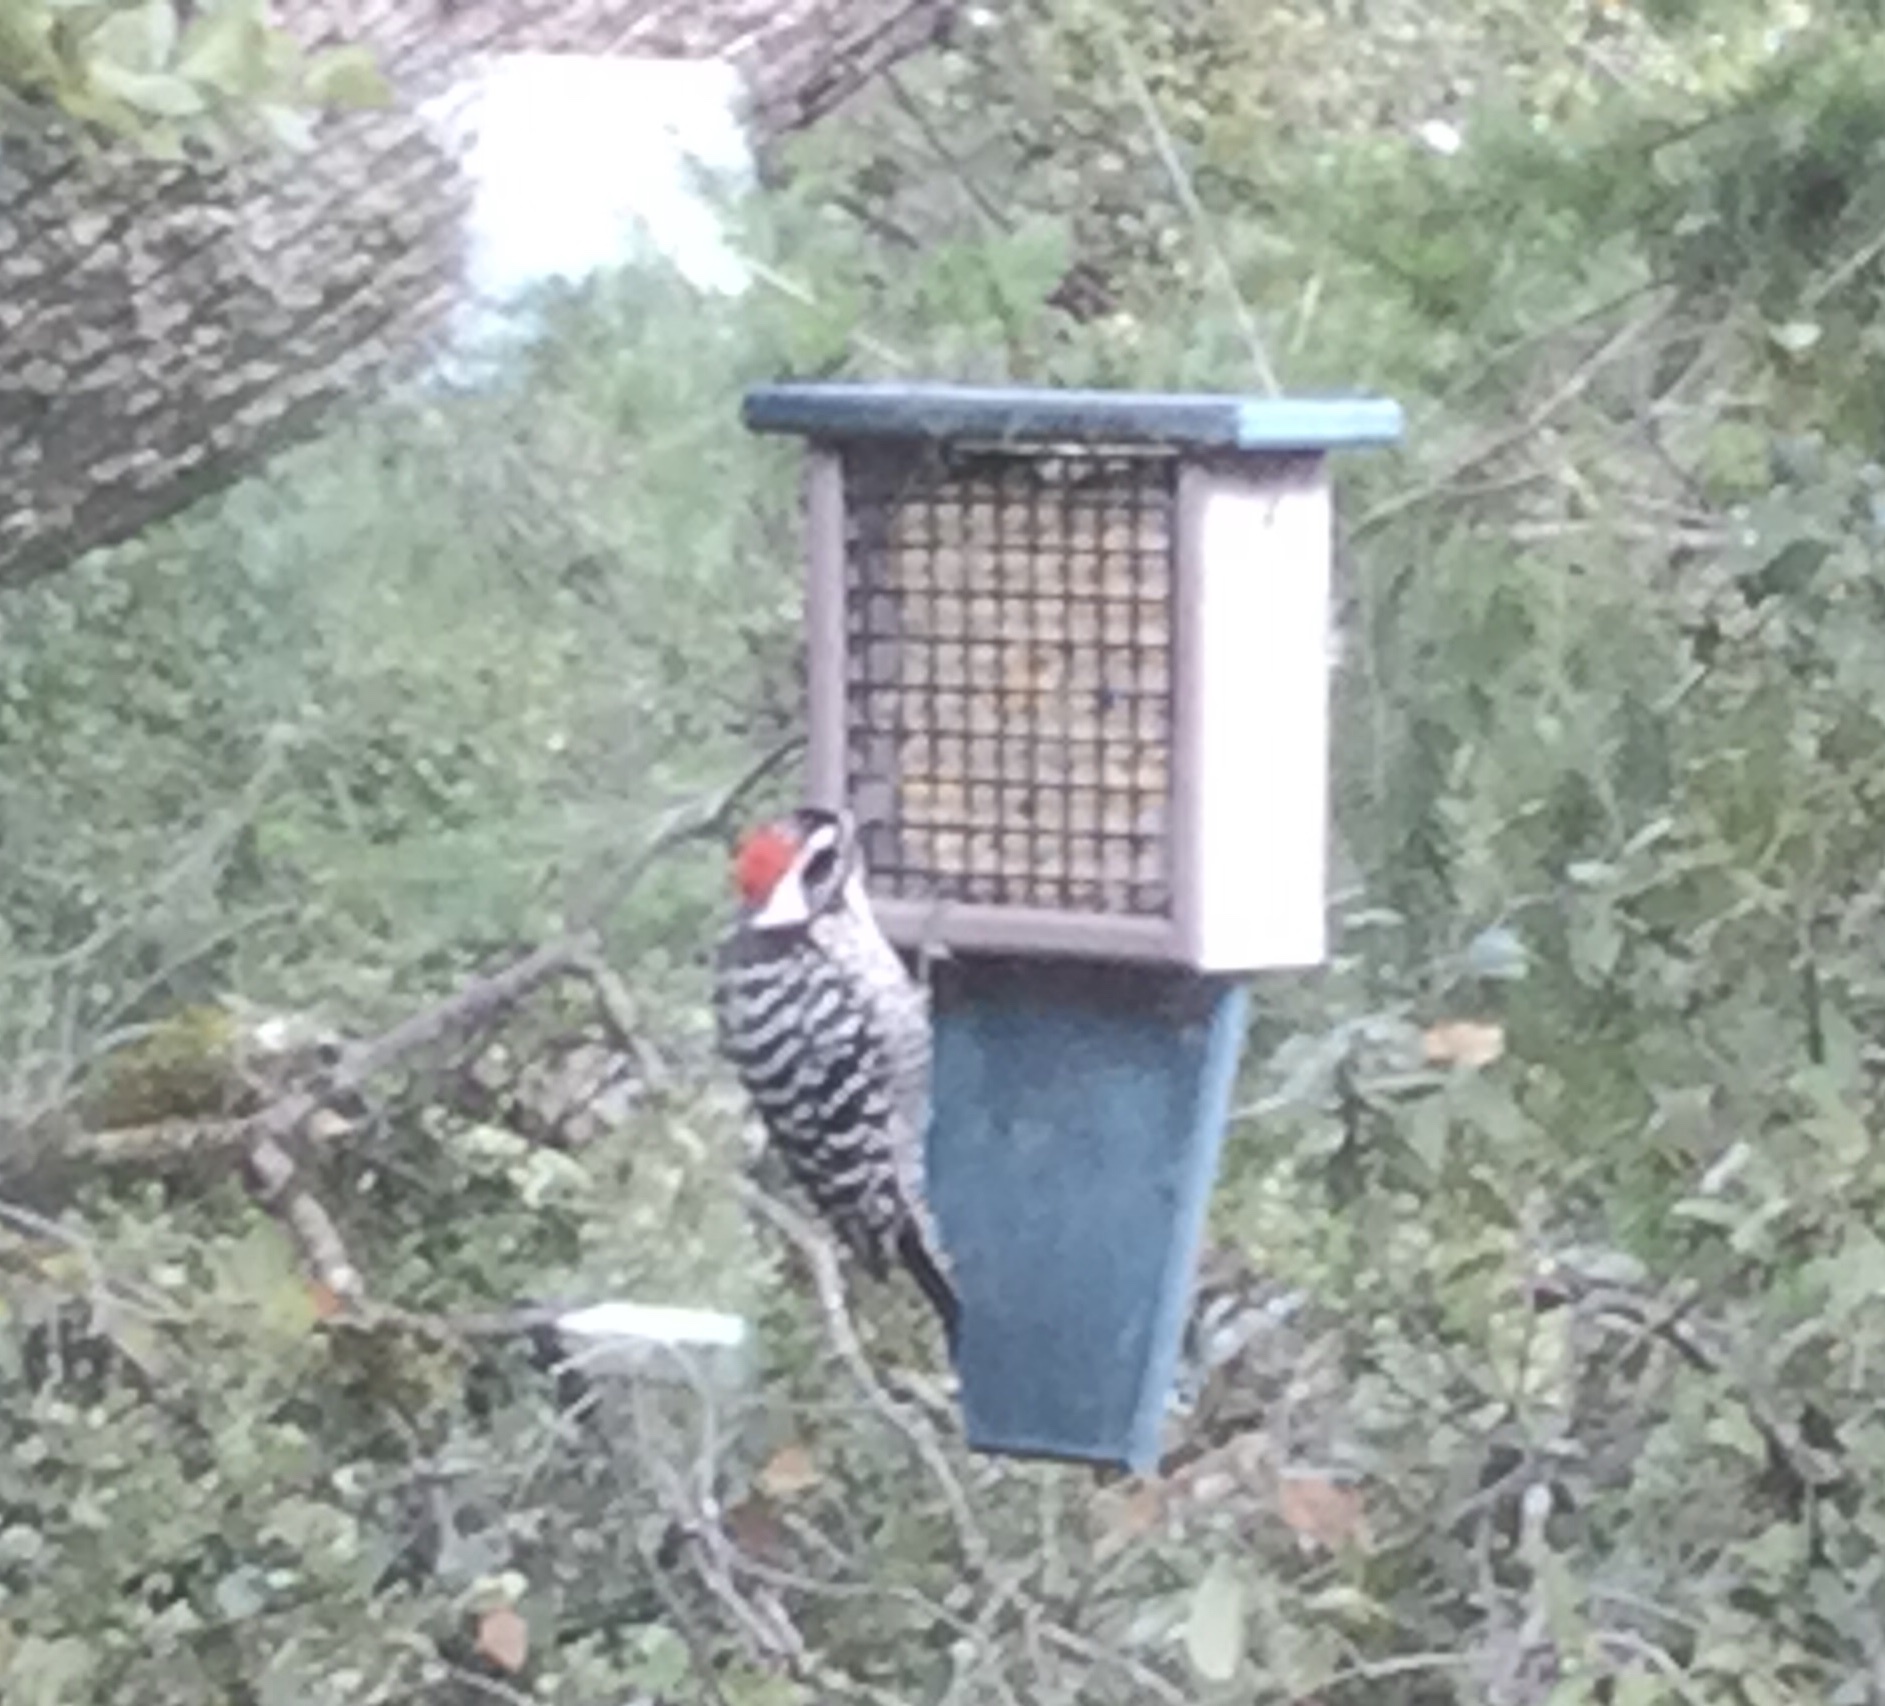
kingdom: Animalia
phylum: Chordata
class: Aves
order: Piciformes
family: Picidae
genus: Dryobates
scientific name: Dryobates nuttallii
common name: Nuttall's woodpecker
